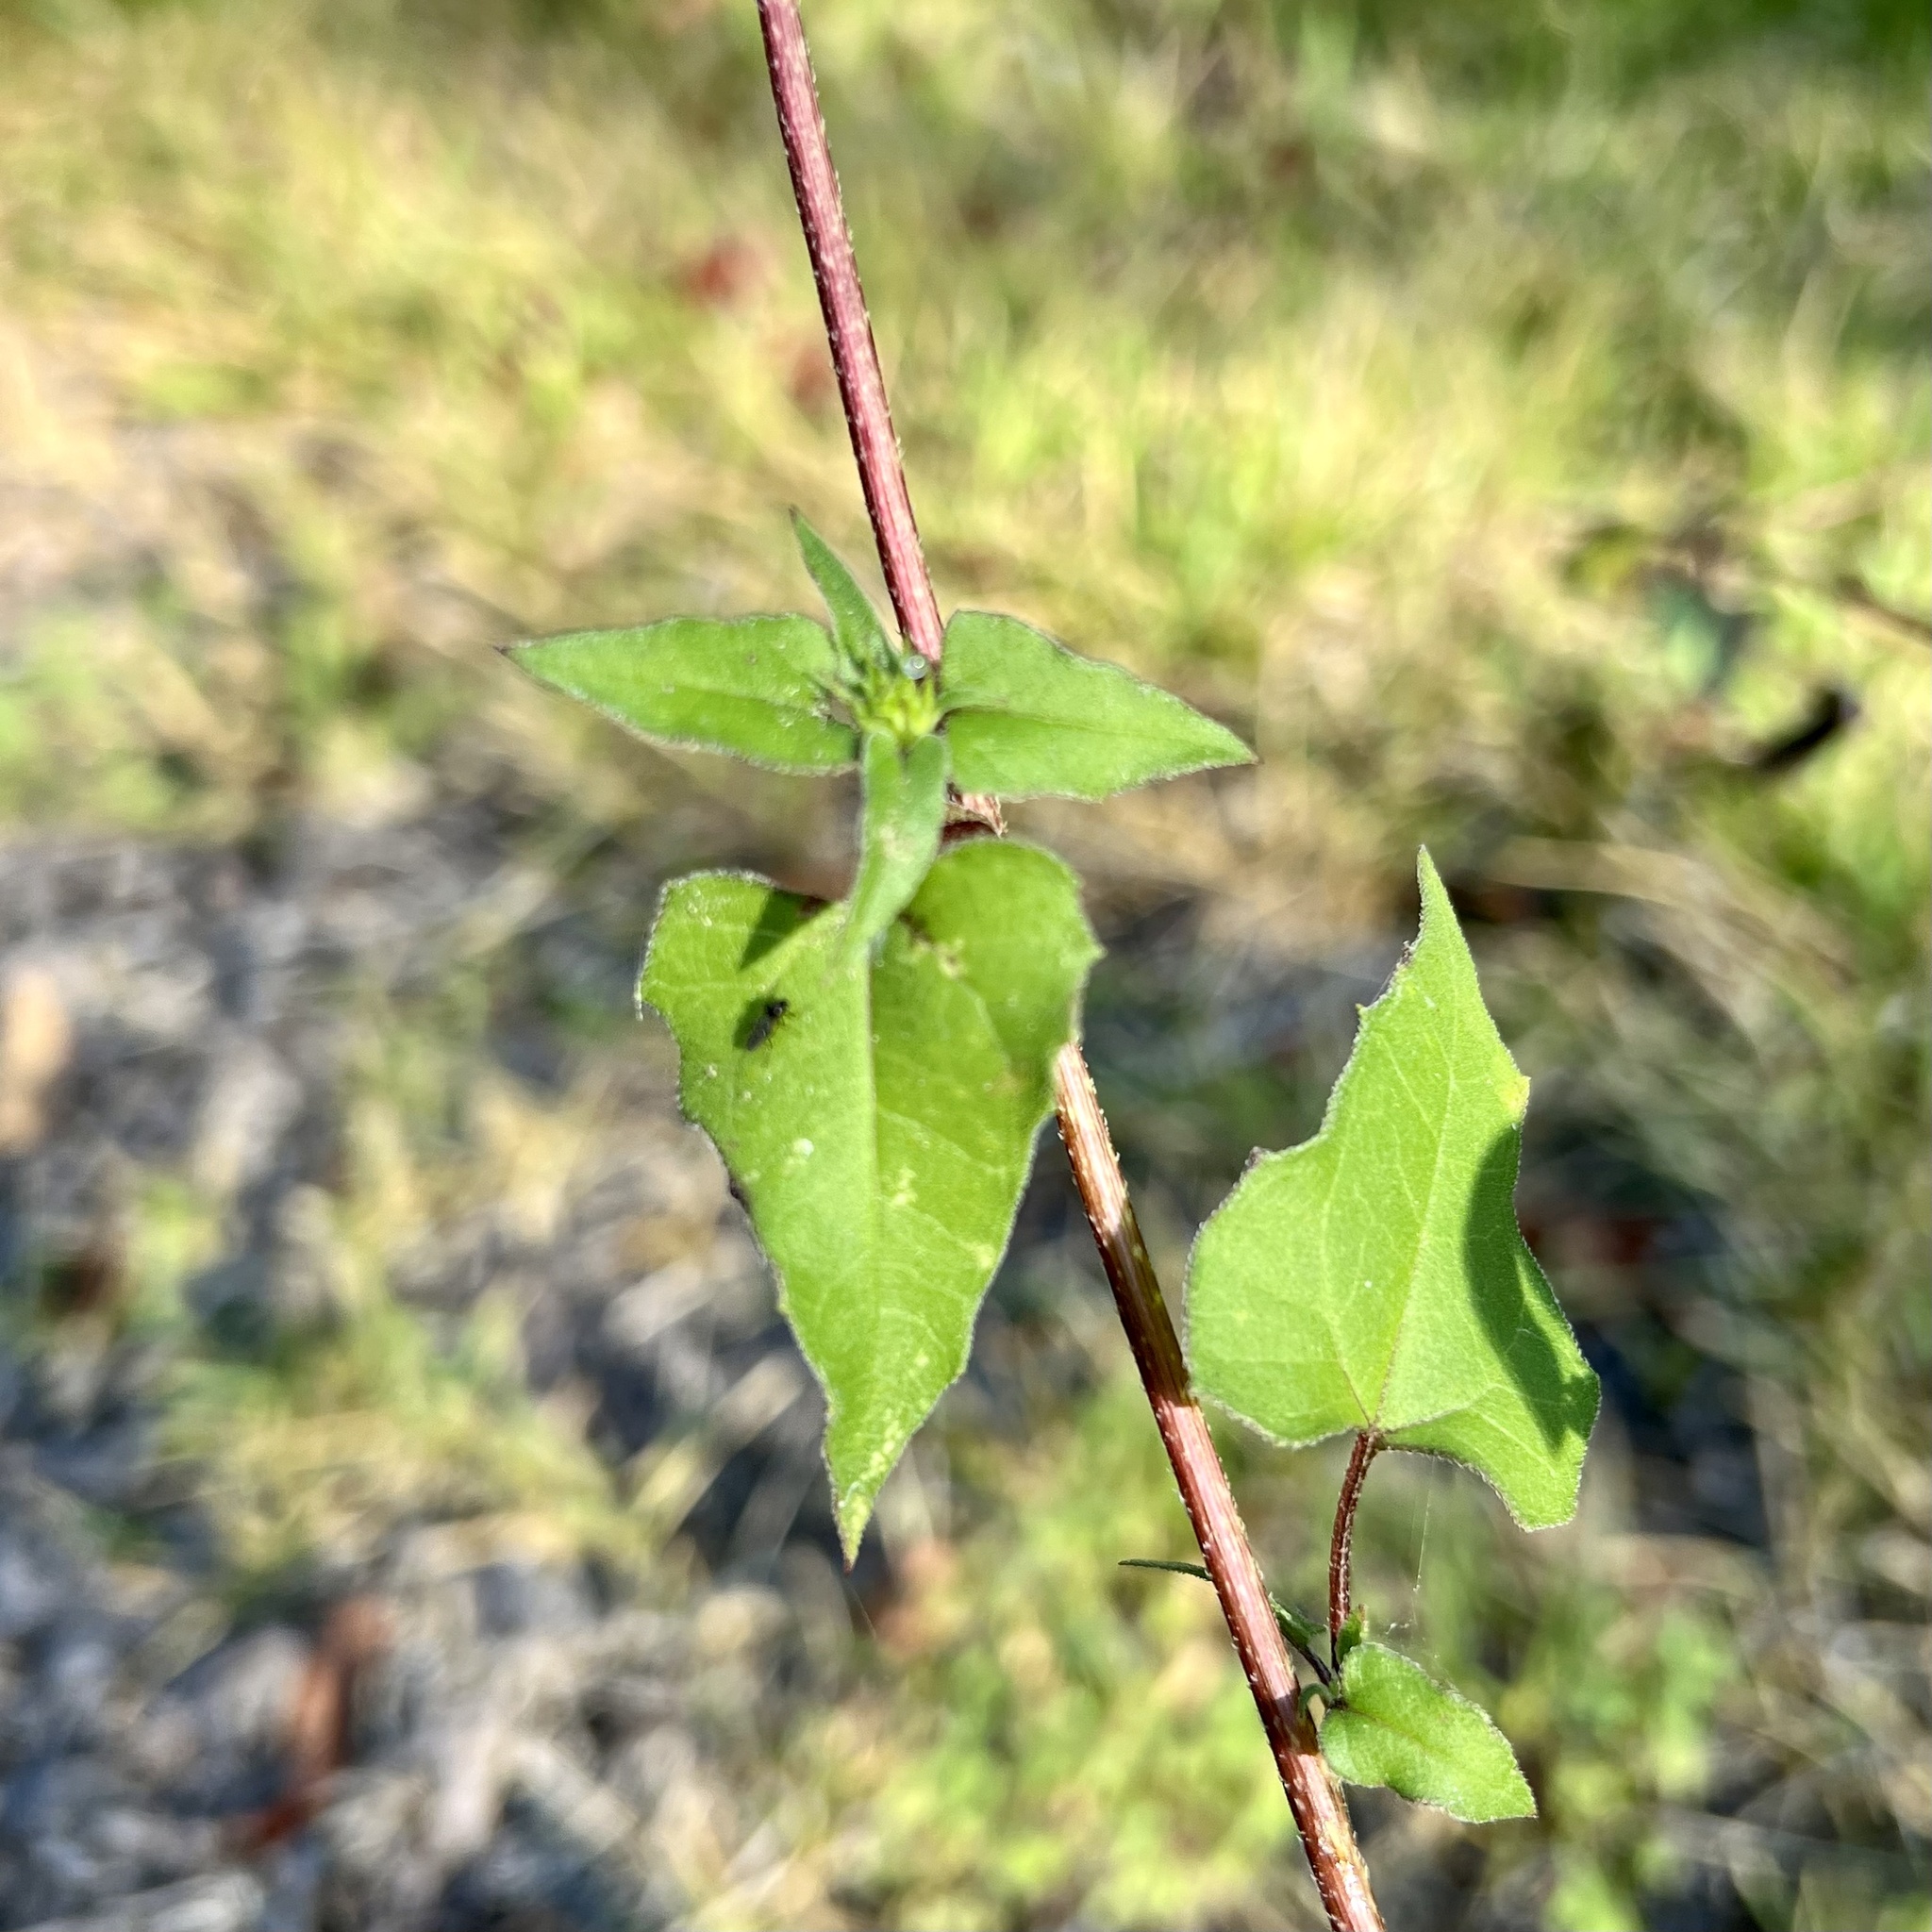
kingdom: Plantae
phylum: Tracheophyta
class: Magnoliopsida
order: Asterales
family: Asteraceae
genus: Helianthus
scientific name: Helianthus debilis
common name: Weak sunflower
